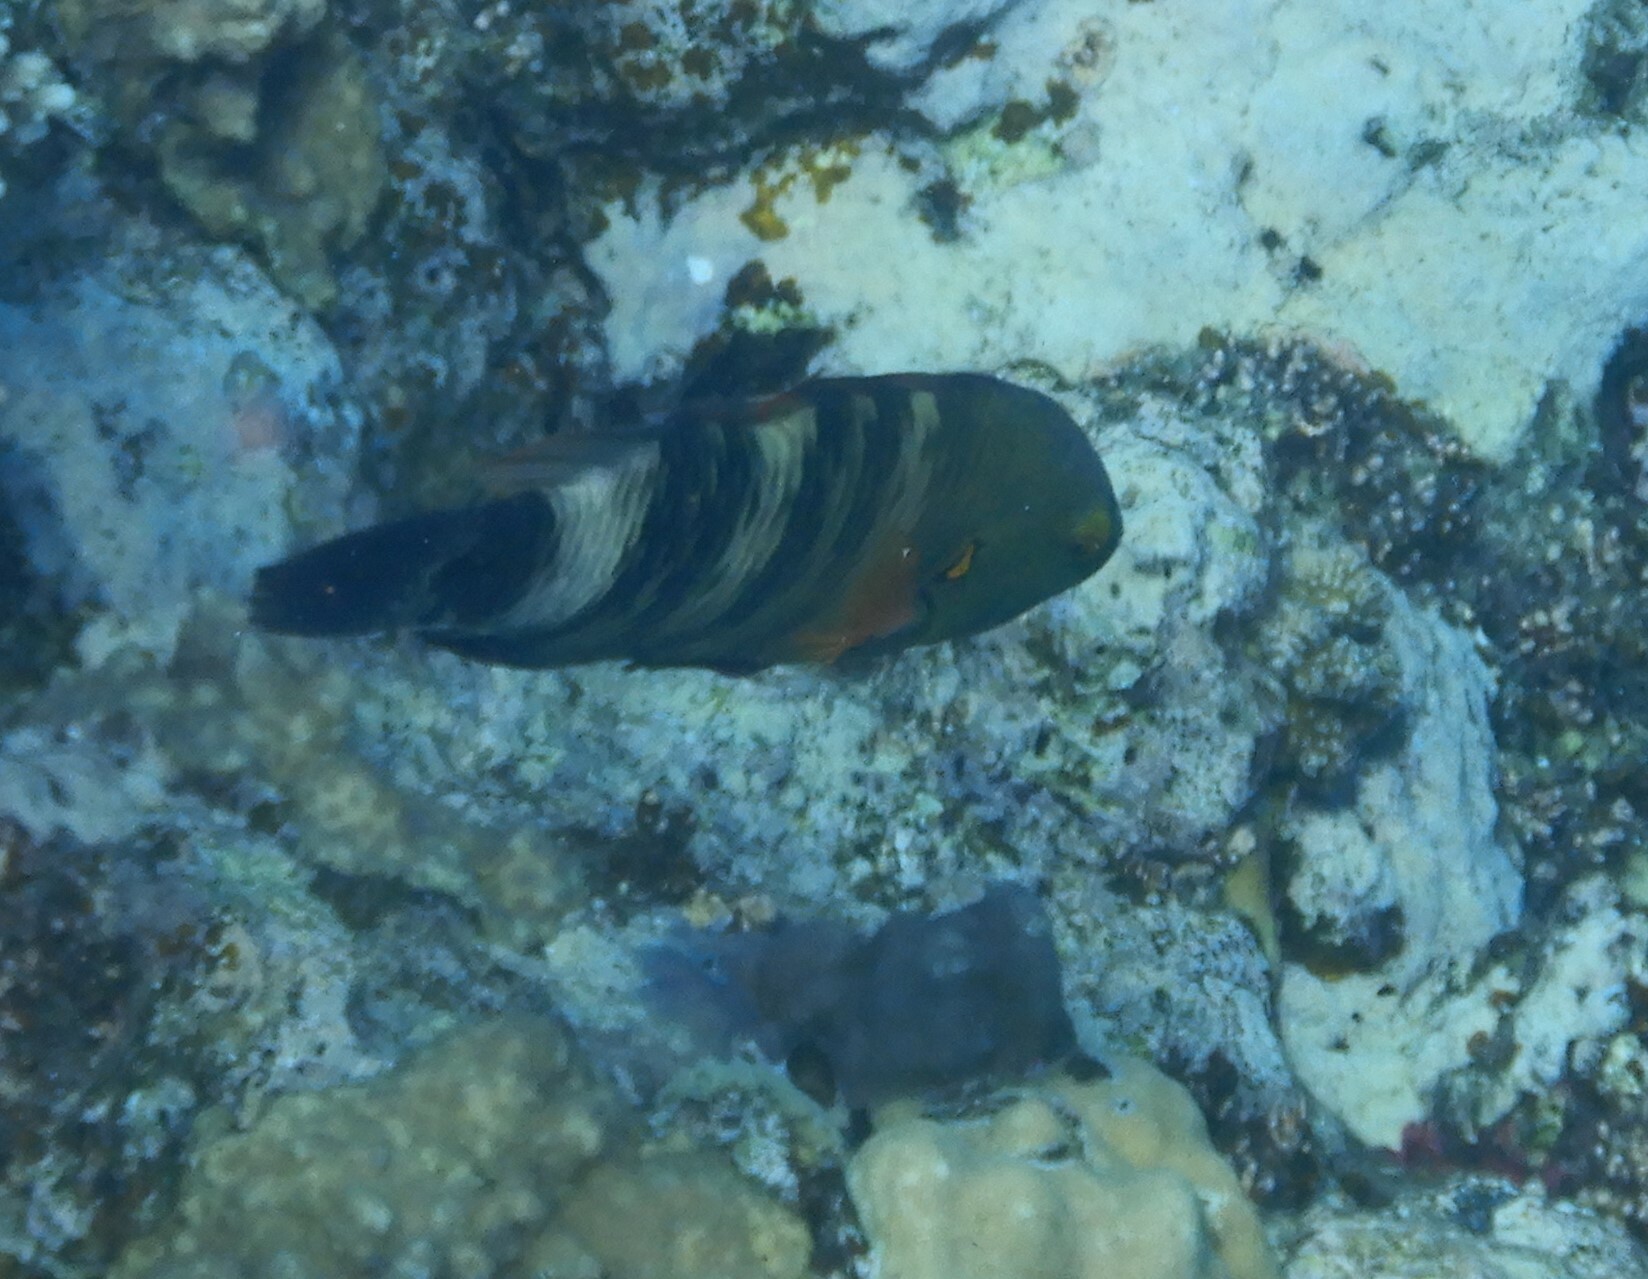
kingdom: Animalia
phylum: Chordata
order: Perciformes
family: Labridae
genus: Cheilinus
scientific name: Cheilinus lunulatus
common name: Broomtail wrasse
